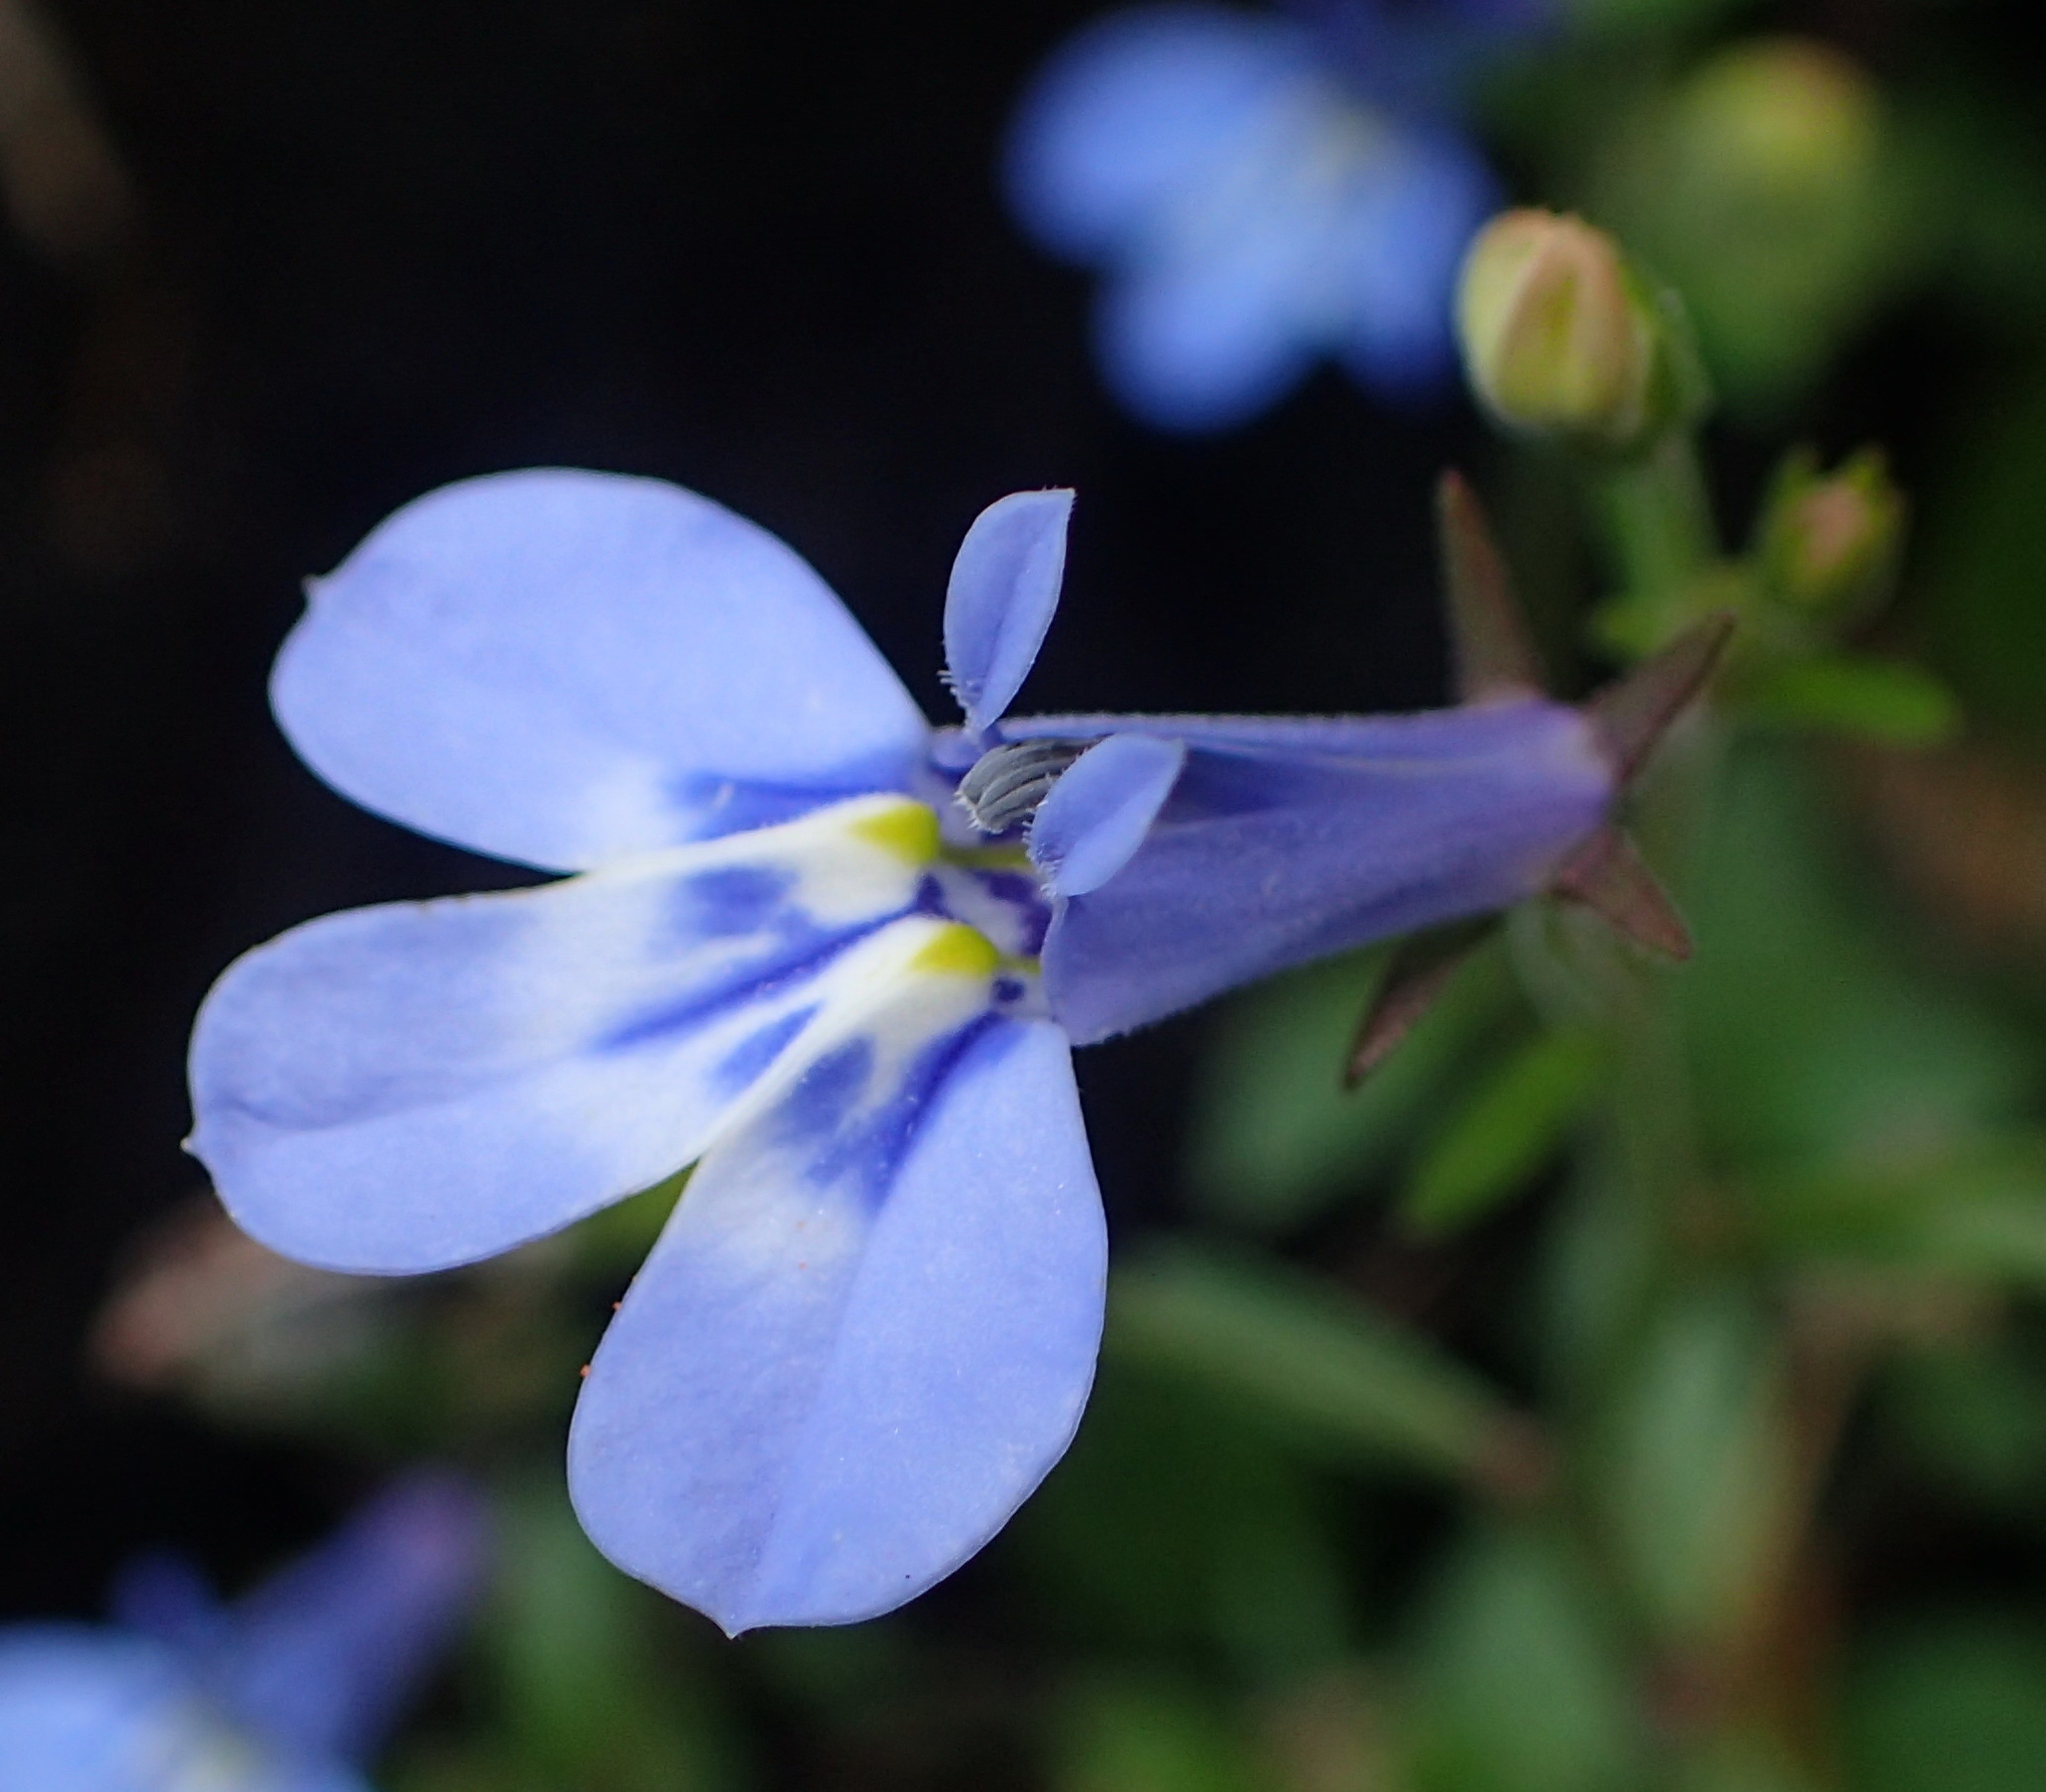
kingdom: Plantae
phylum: Tracheophyta
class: Magnoliopsida
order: Asterales
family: Campanulaceae
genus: Lobelia
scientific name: Lobelia erinus
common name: Edging lobelia
